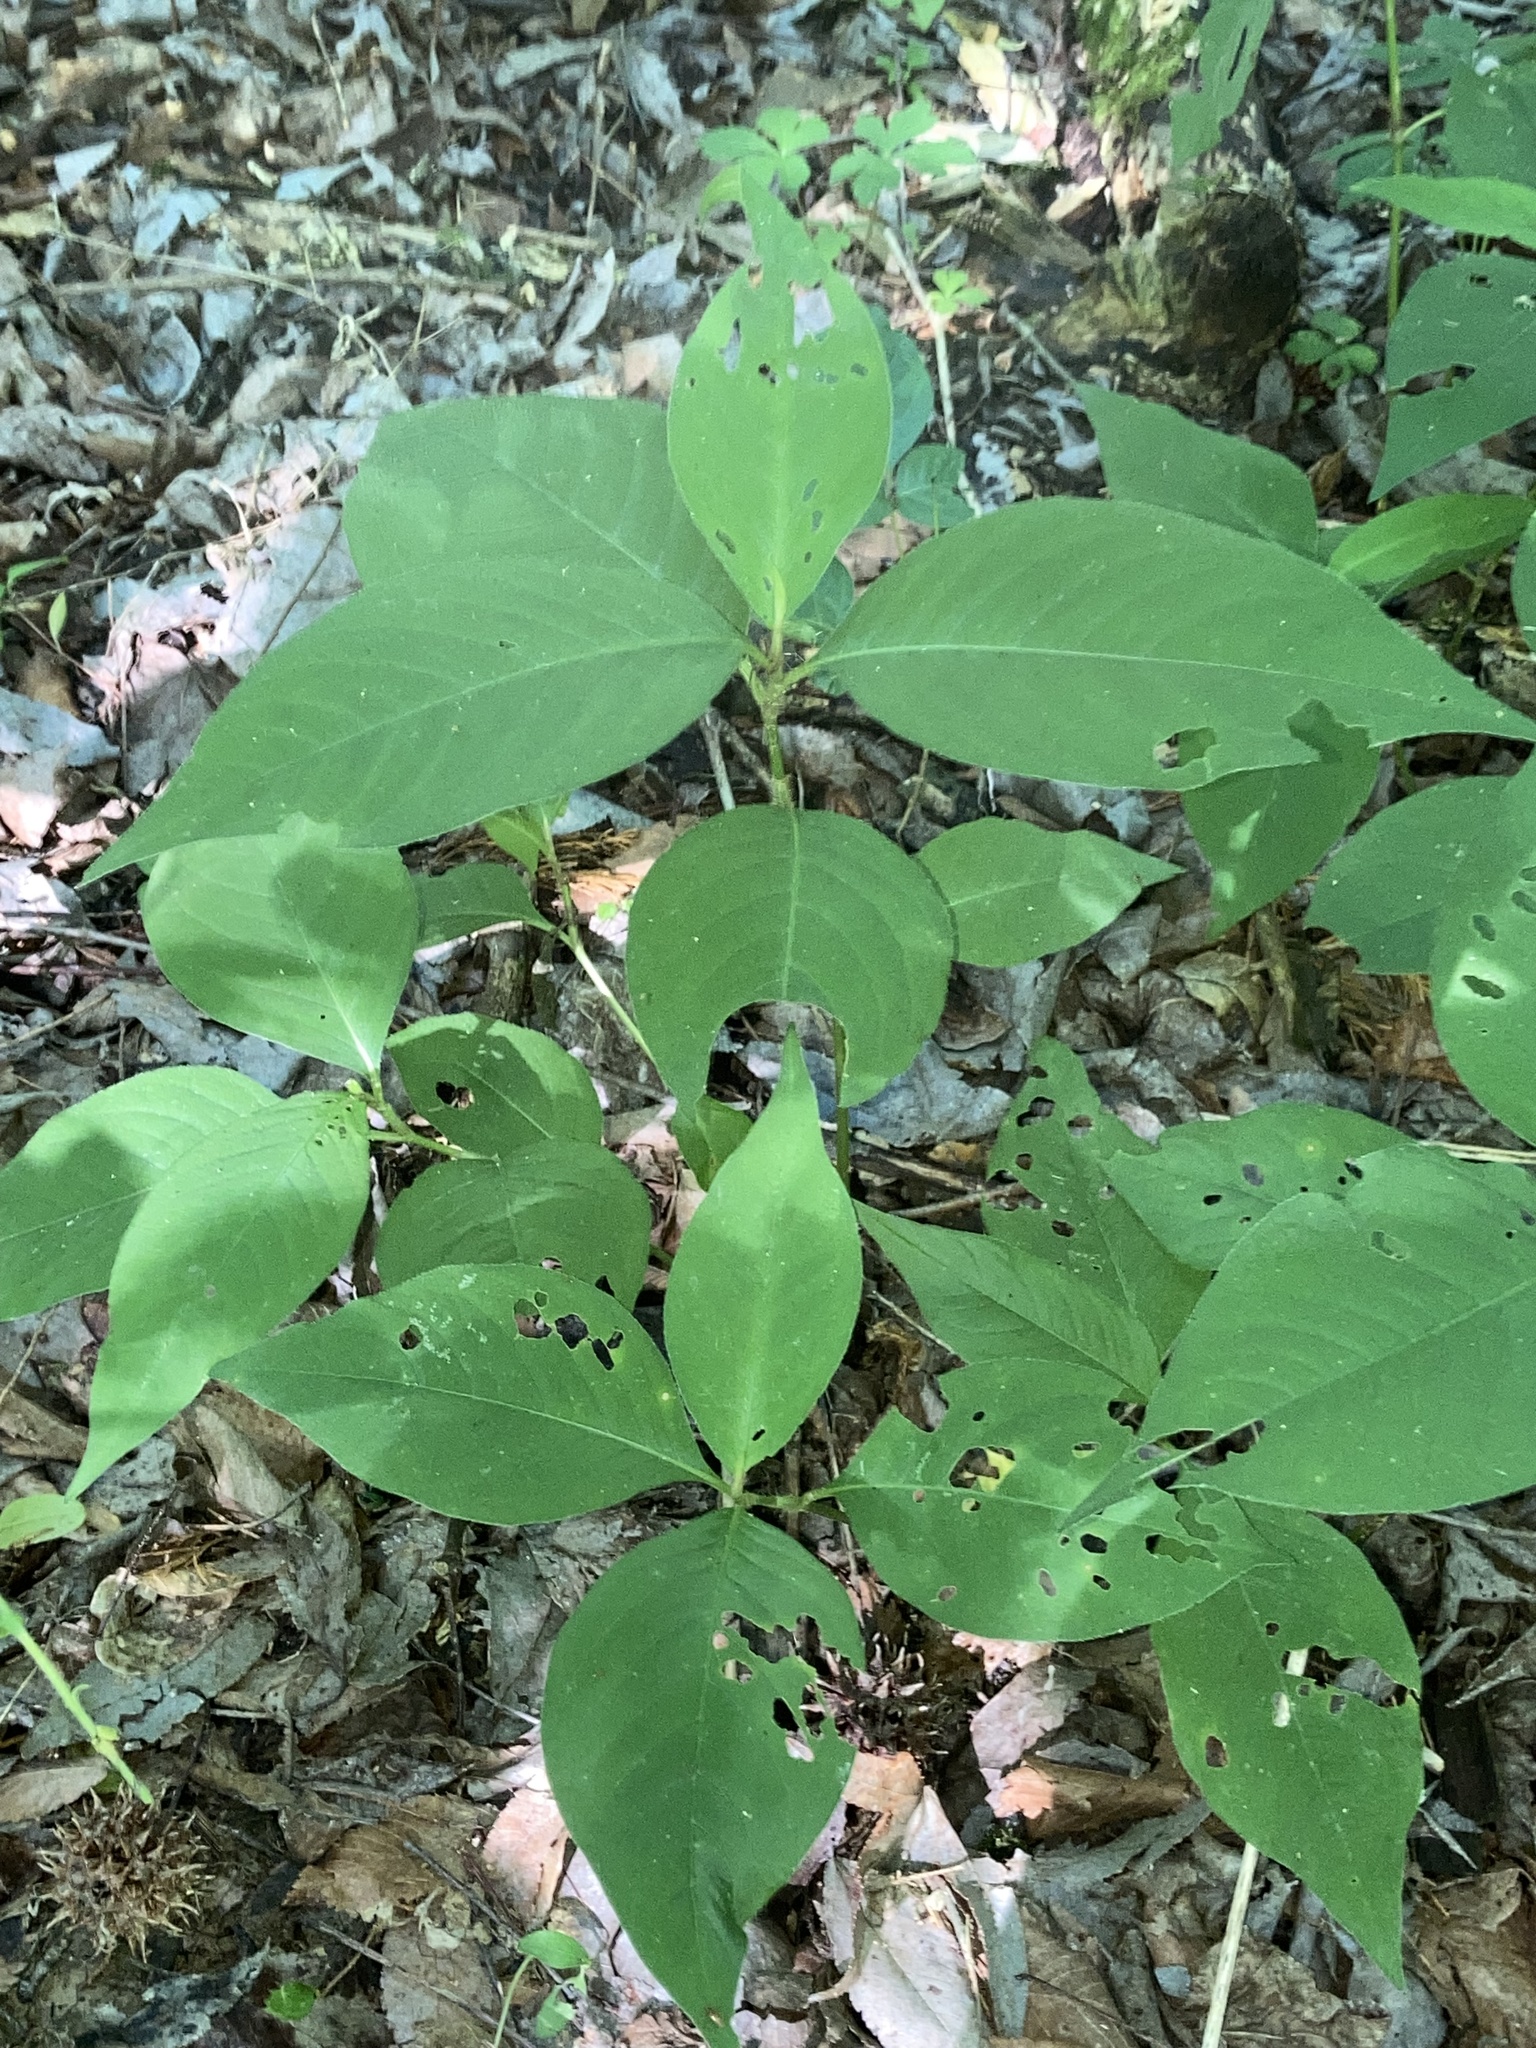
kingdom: Plantae
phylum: Tracheophyta
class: Magnoliopsida
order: Caryophyllales
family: Polygonaceae
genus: Persicaria
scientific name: Persicaria virginiana
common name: Jumpseed
